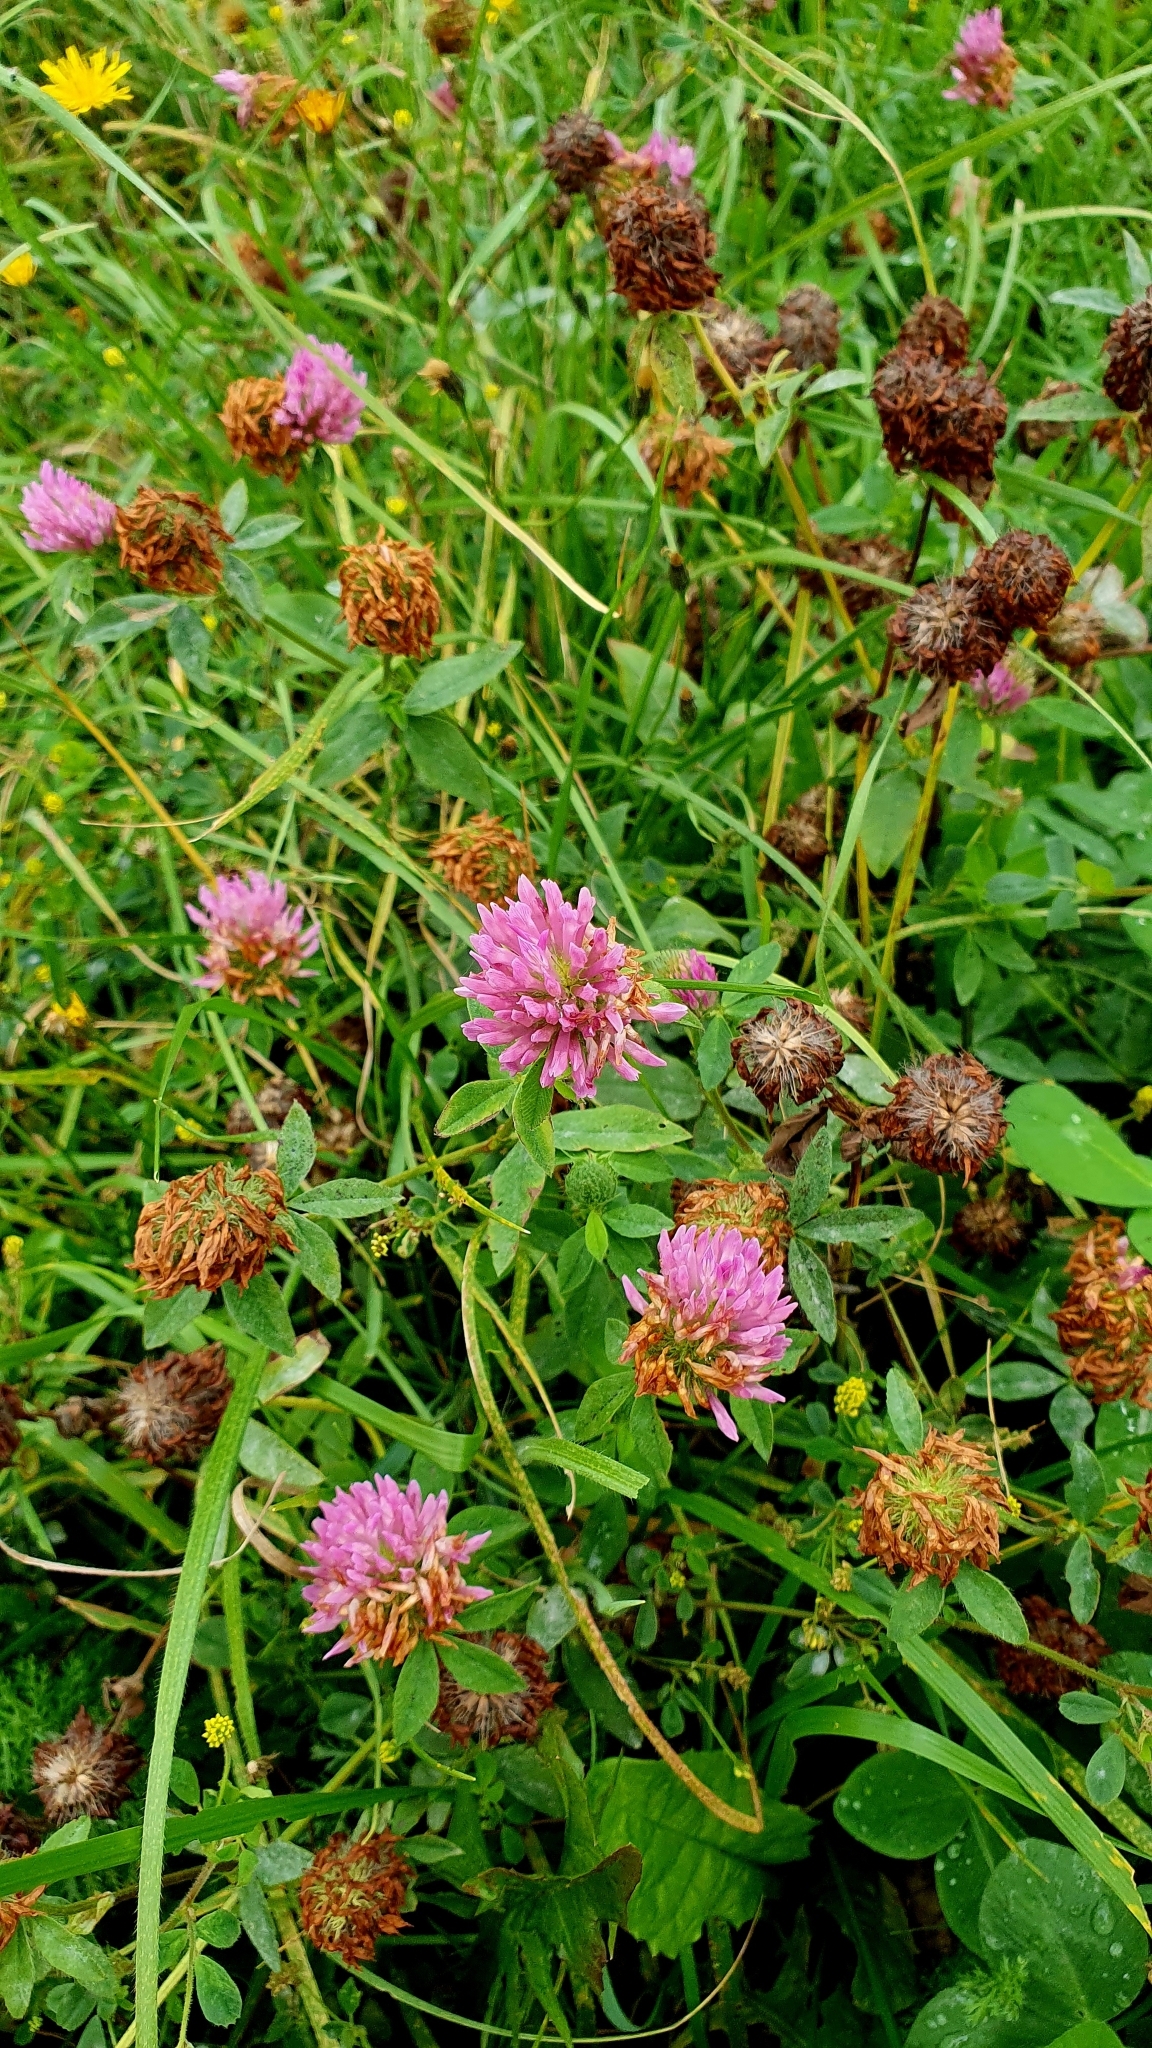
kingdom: Plantae
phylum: Tracheophyta
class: Magnoliopsida
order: Fabales
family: Fabaceae
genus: Trifolium
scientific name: Trifolium pratense
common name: Red clover
